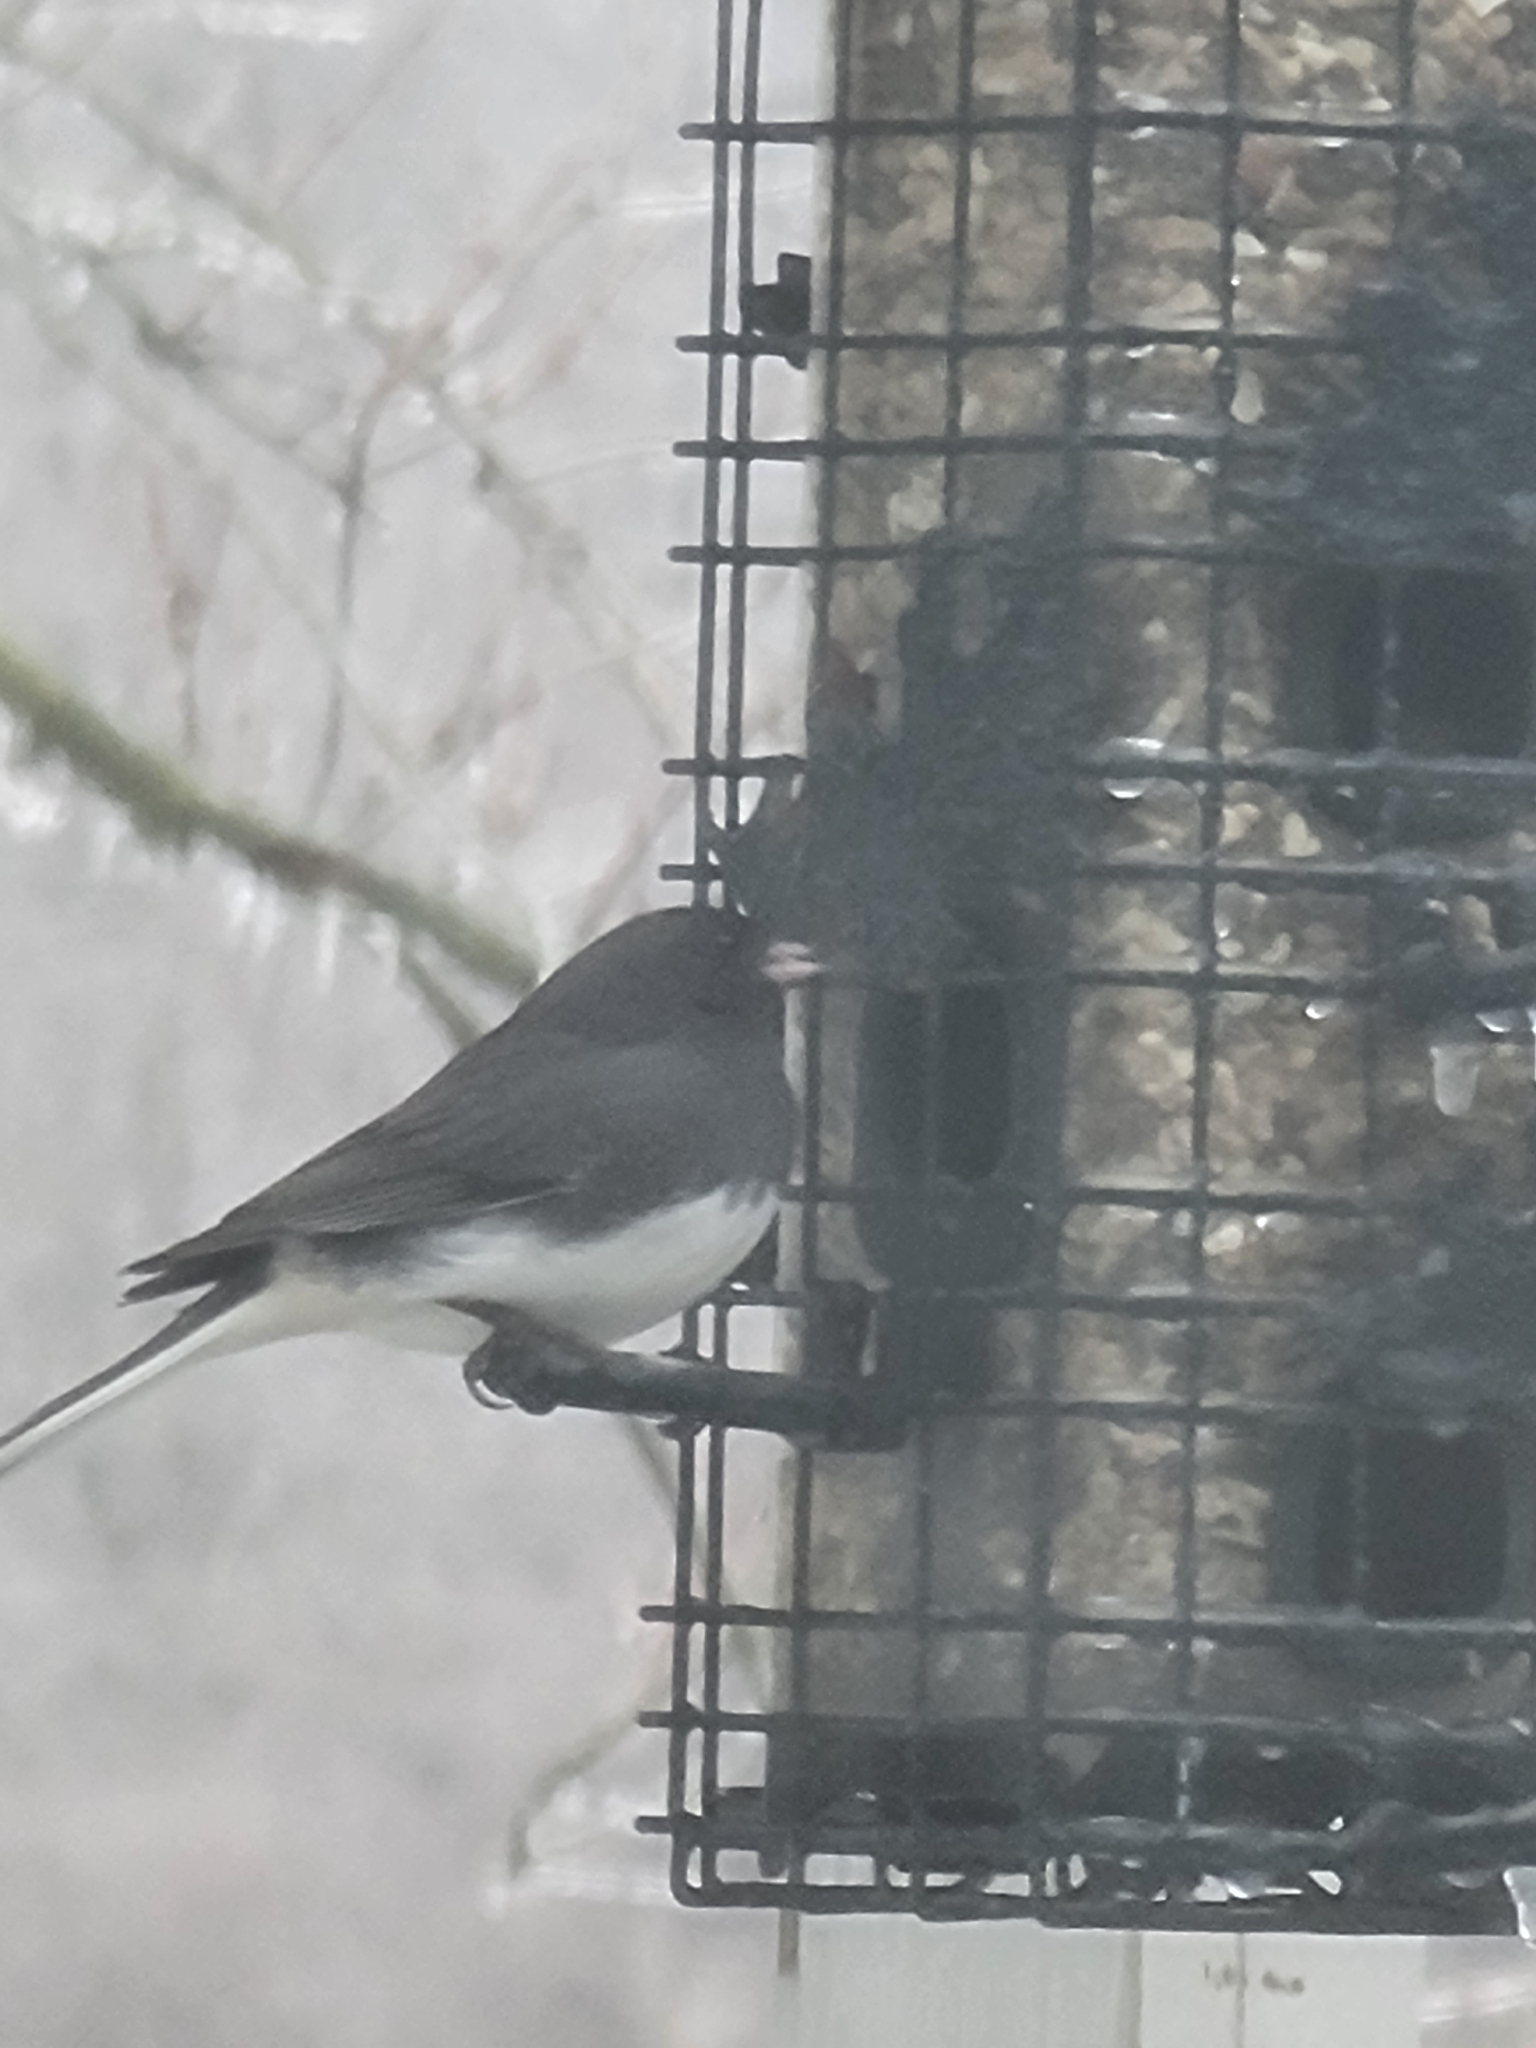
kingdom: Animalia
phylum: Chordata
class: Aves
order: Passeriformes
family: Passerellidae
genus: Junco
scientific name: Junco hyemalis
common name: Dark-eyed junco
